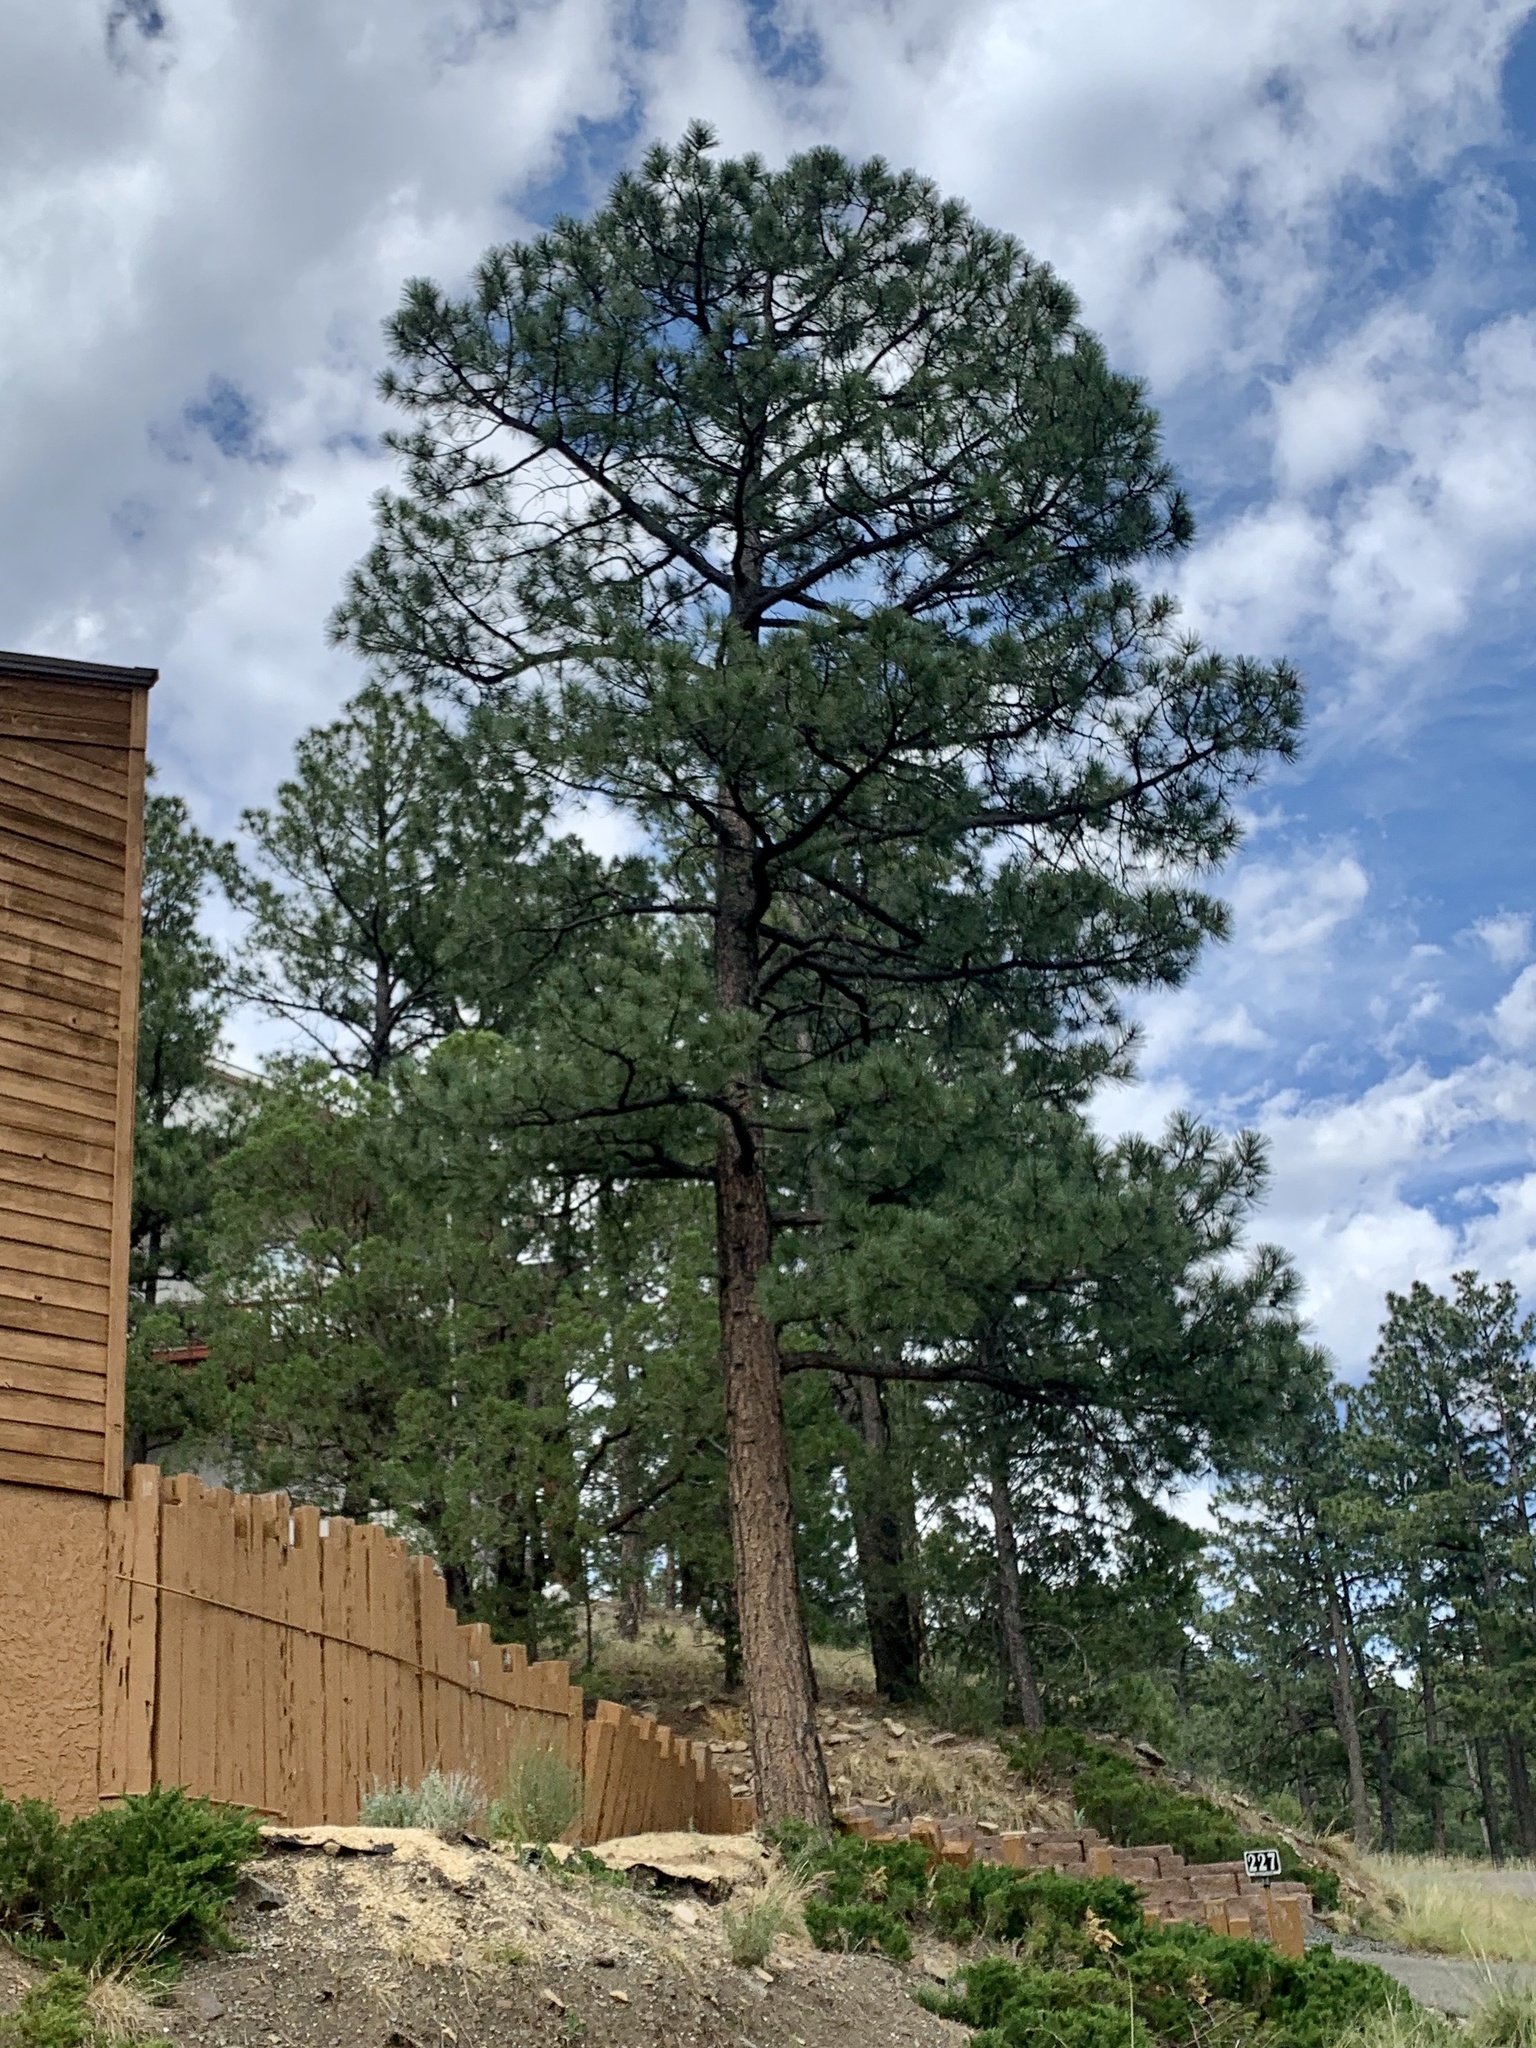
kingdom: Plantae
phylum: Tracheophyta
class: Pinopsida
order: Pinales
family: Pinaceae
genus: Pinus
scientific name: Pinus ponderosa
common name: Western yellow-pine
